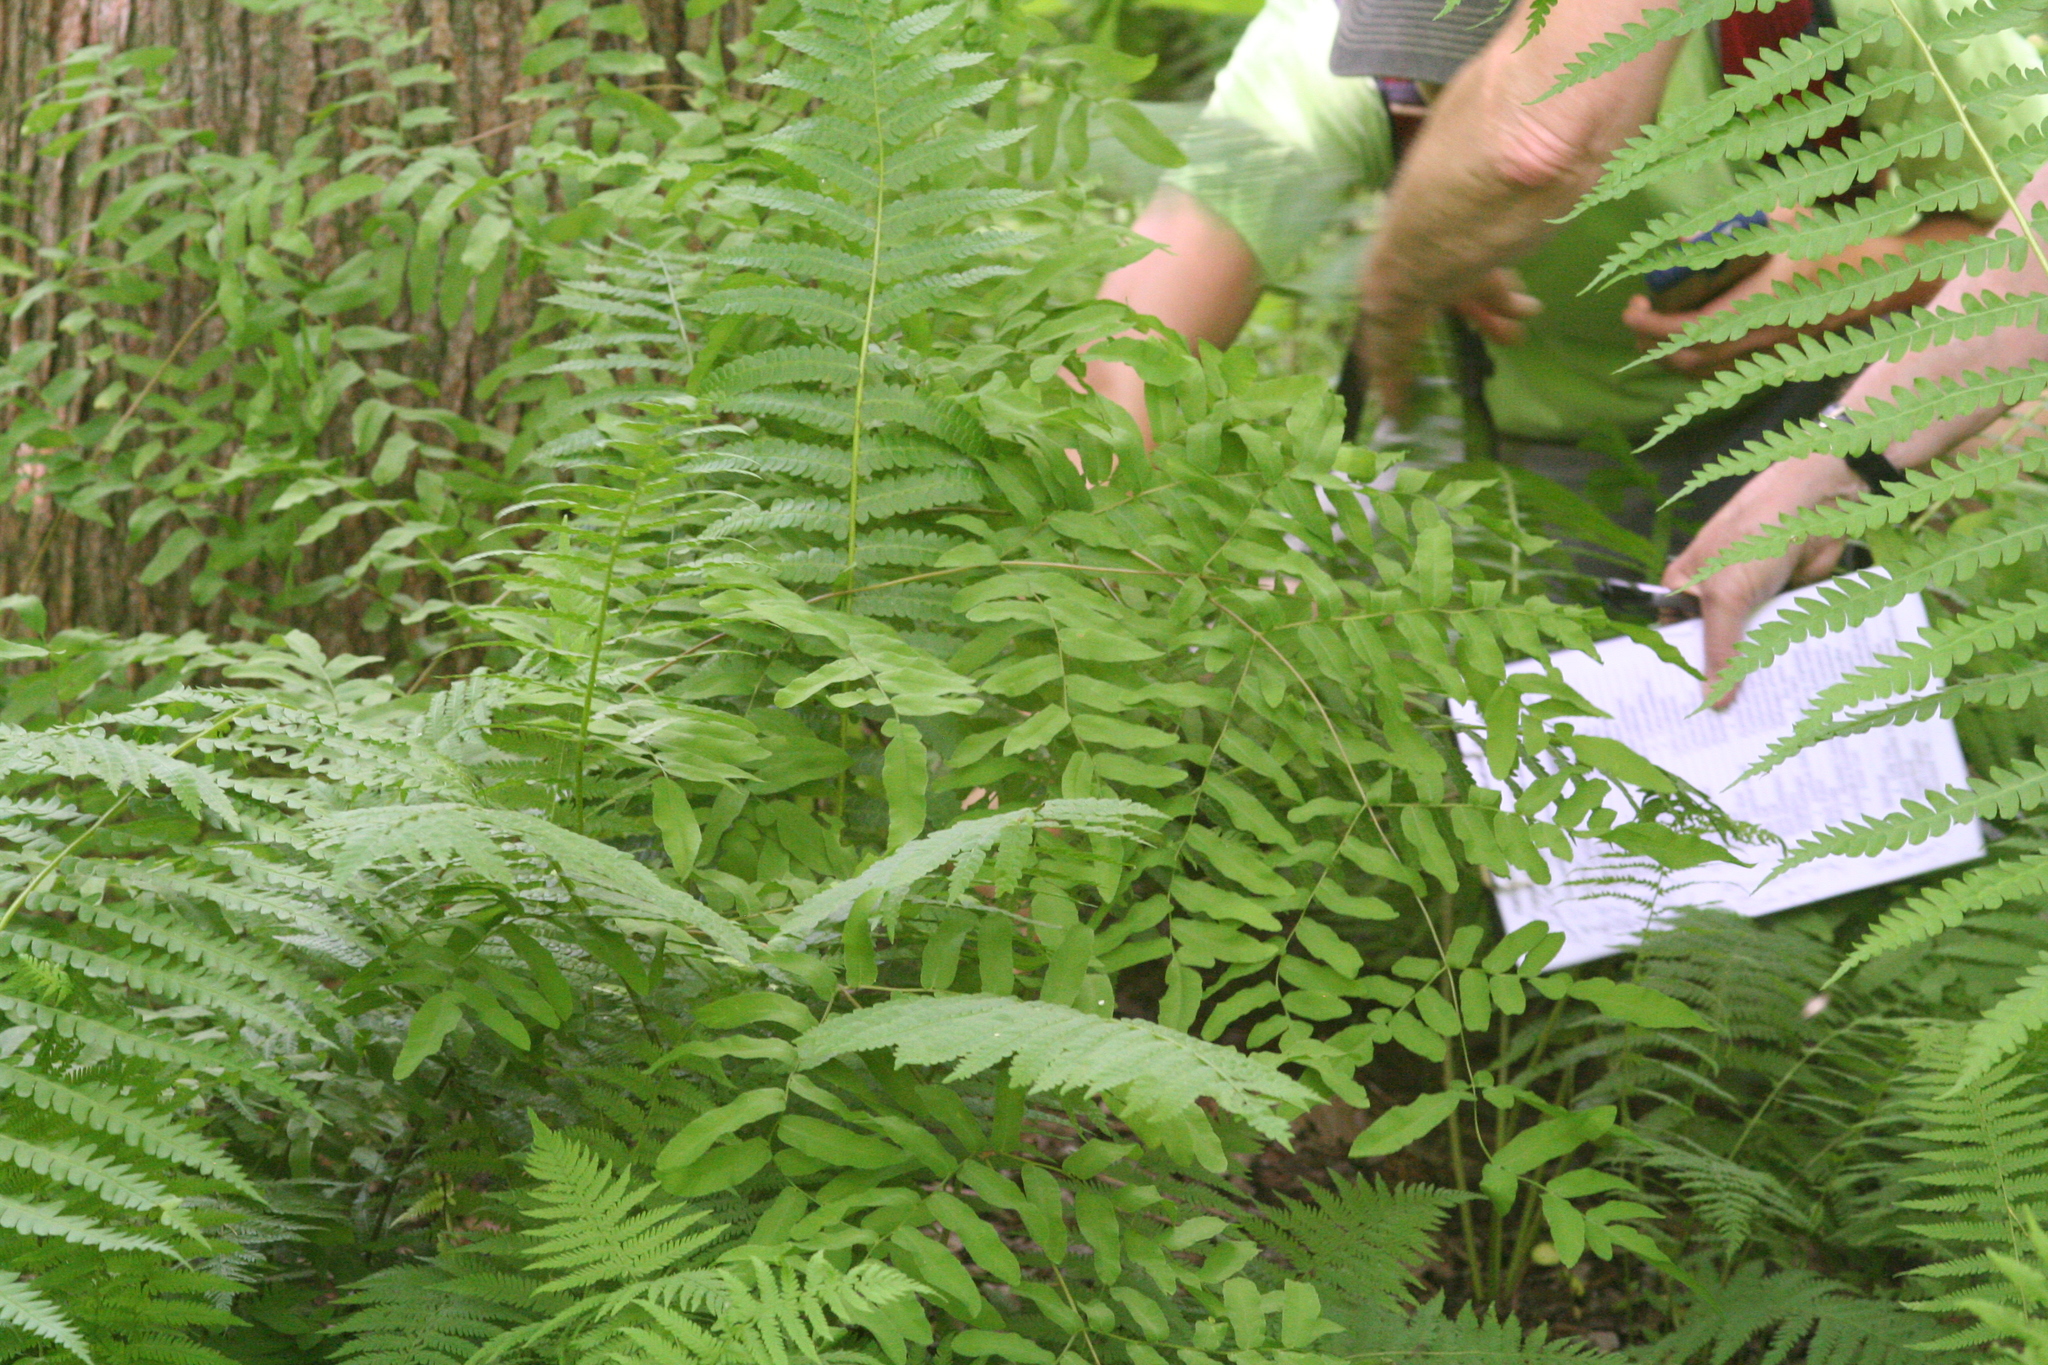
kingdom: Plantae
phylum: Tracheophyta
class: Polypodiopsida
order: Osmundales
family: Osmundaceae
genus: Osmunda
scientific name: Osmunda spectabilis
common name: American royal fern
